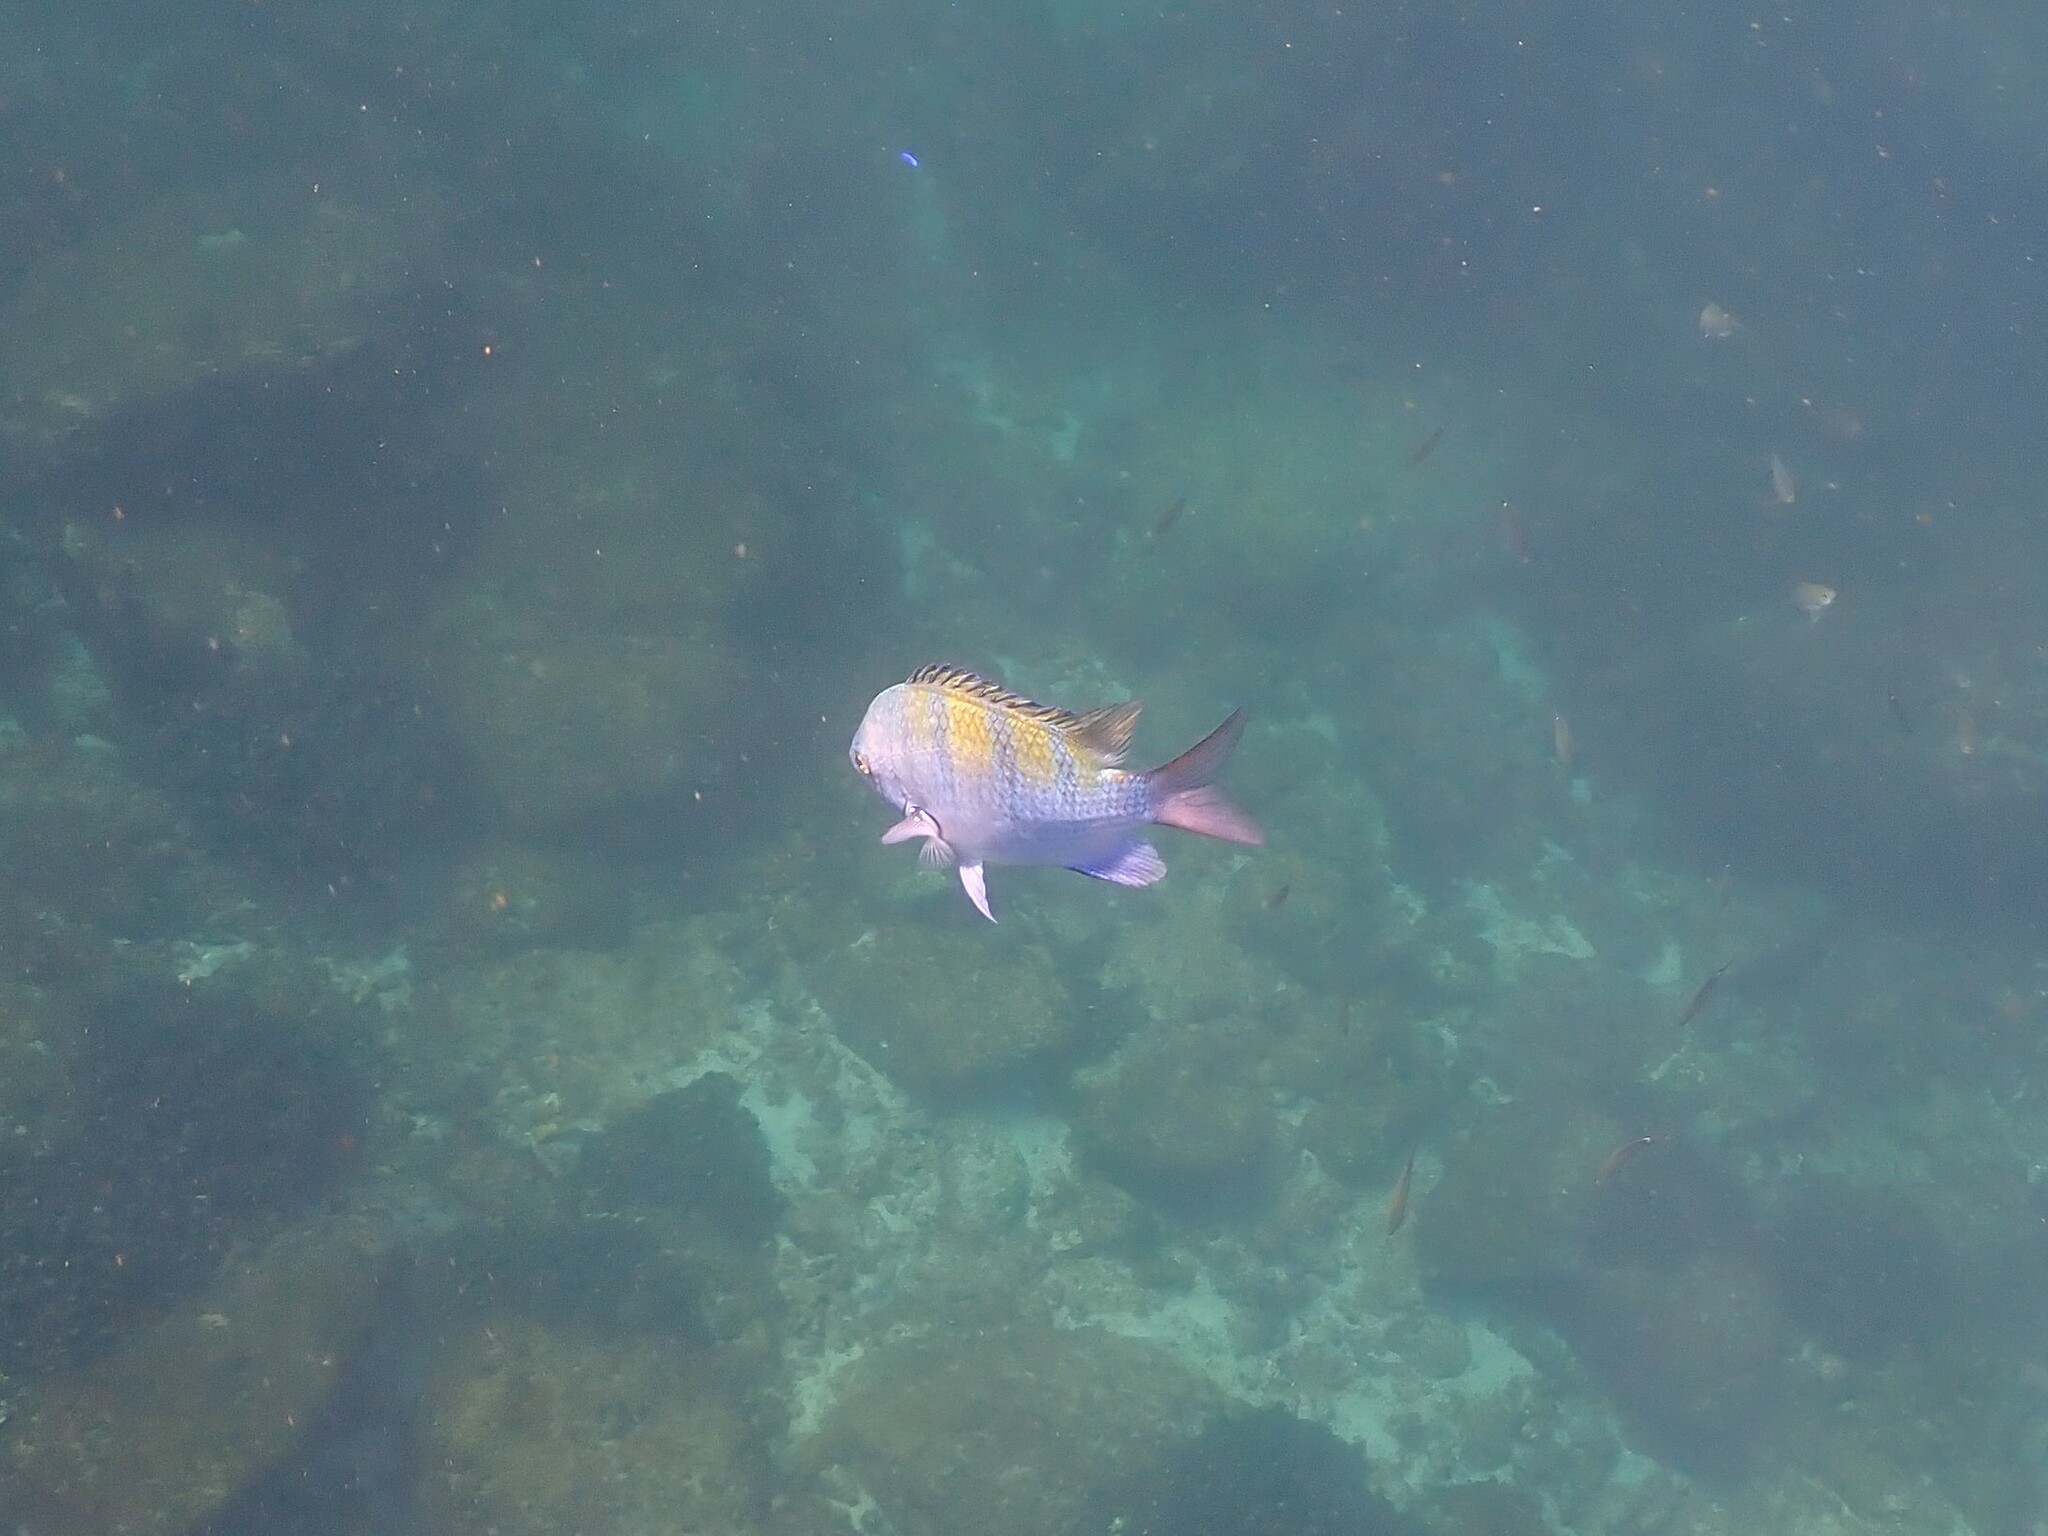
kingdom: Animalia
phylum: Chordata
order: Perciformes
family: Pomacentridae
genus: Abudefduf
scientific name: Abudefduf troschelii
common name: Panamic sergeant major
